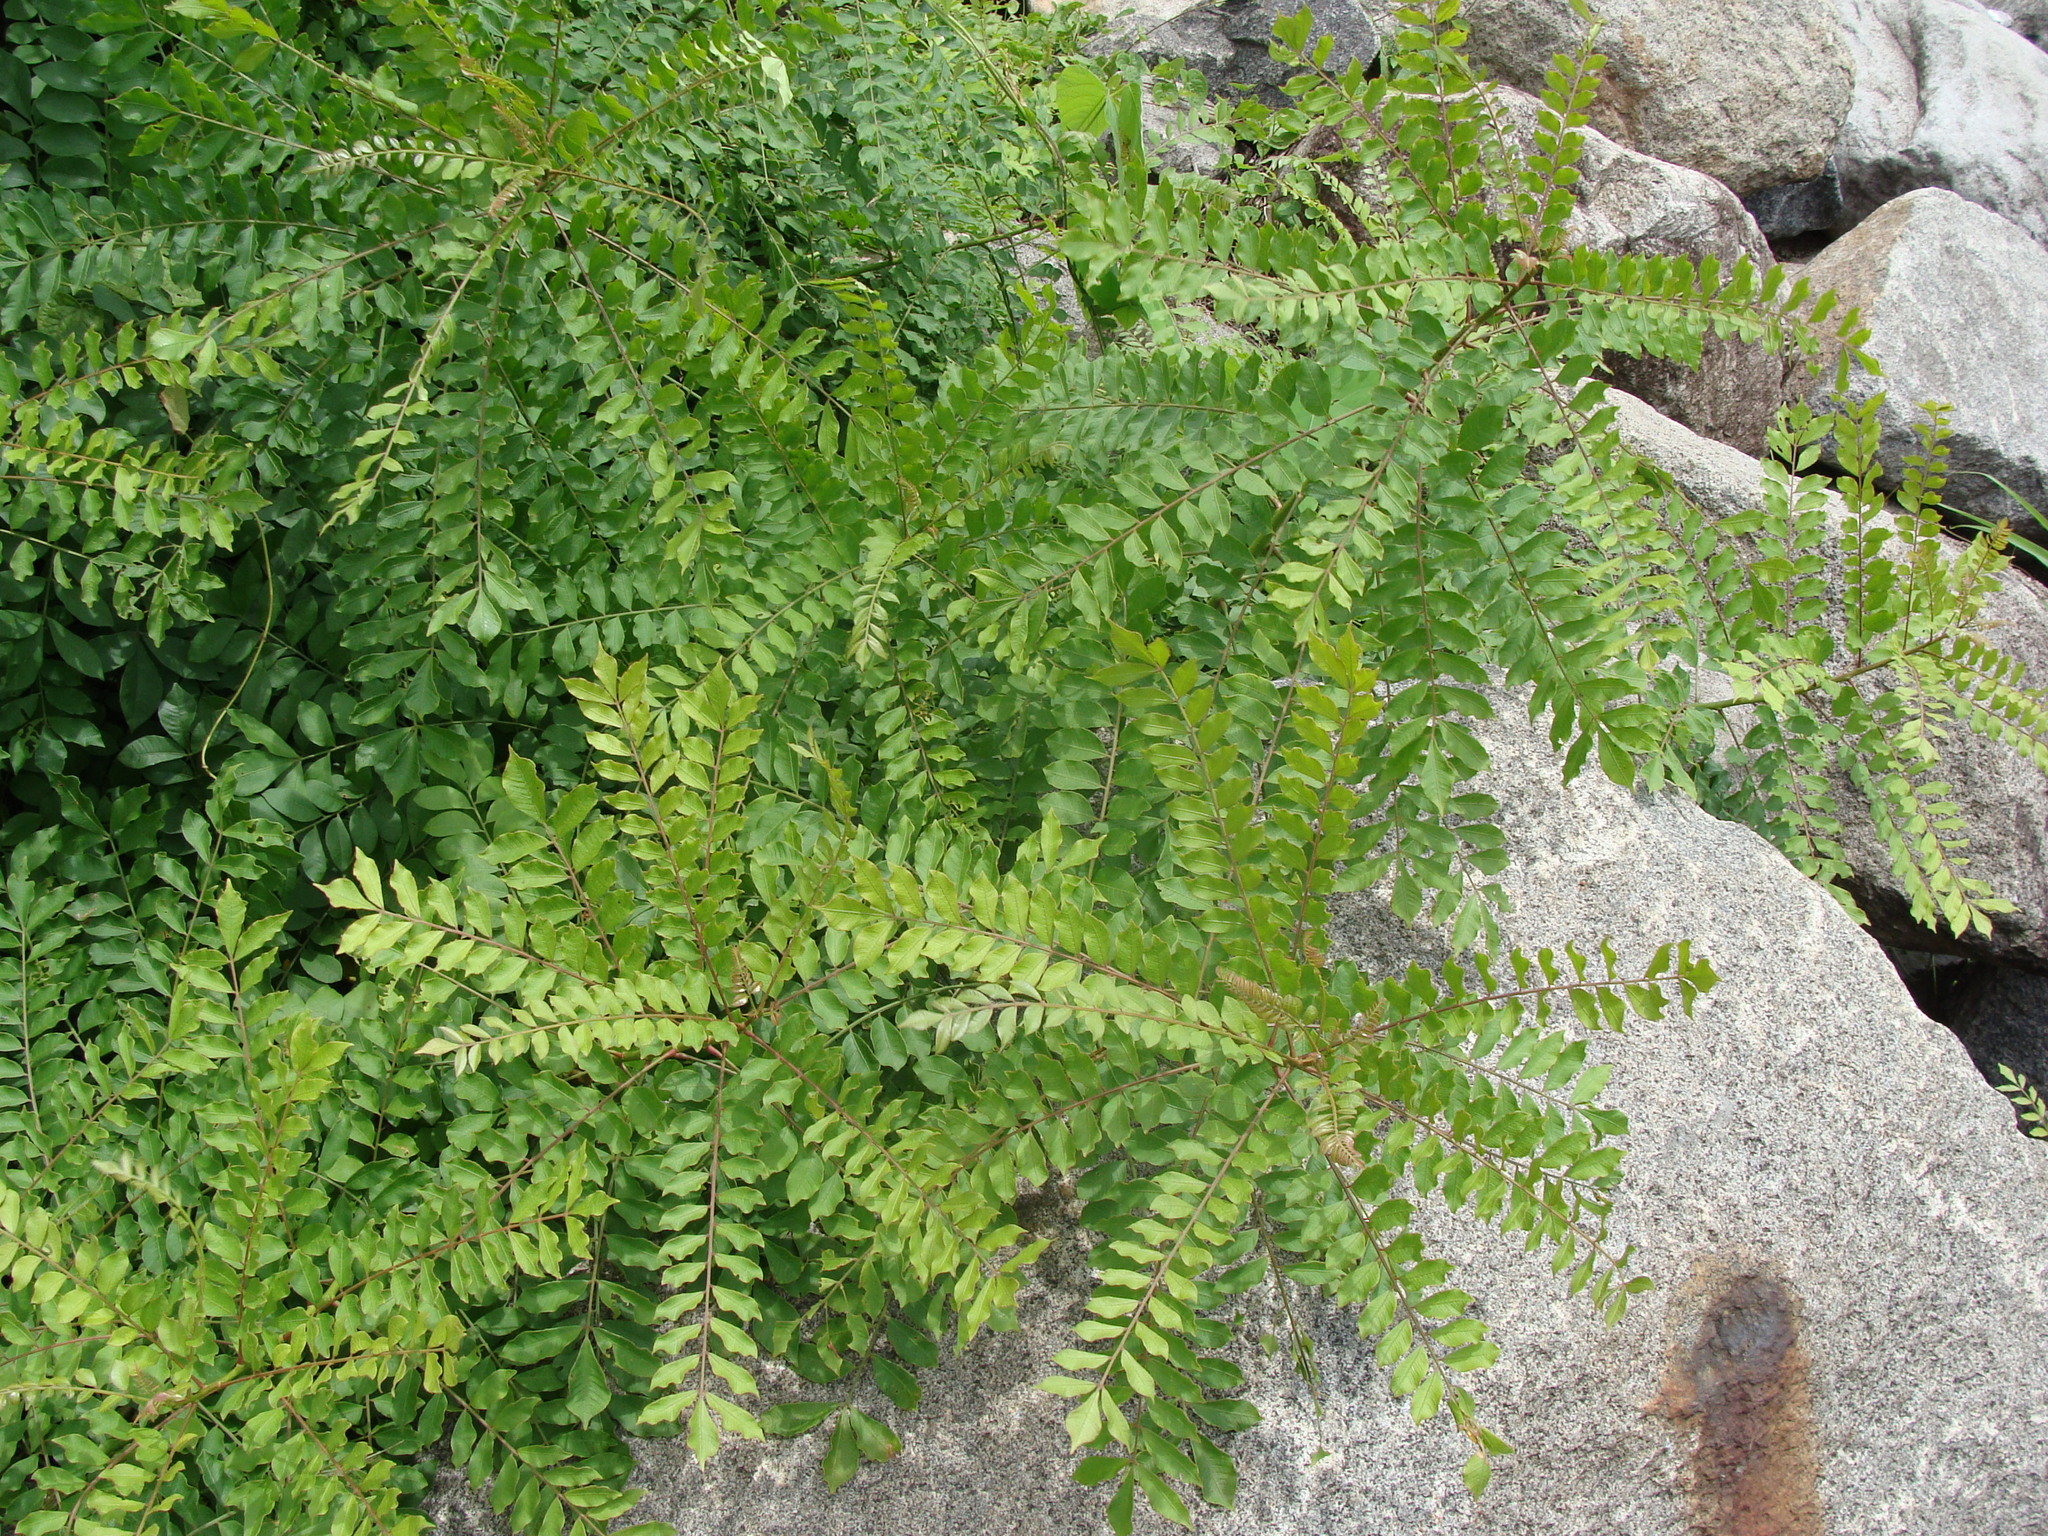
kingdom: Plantae
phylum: Tracheophyta
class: Magnoliopsida
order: Sapindales
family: Anacardiaceae
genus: Spondias
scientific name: Spondias purpurea
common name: Purple mombin
